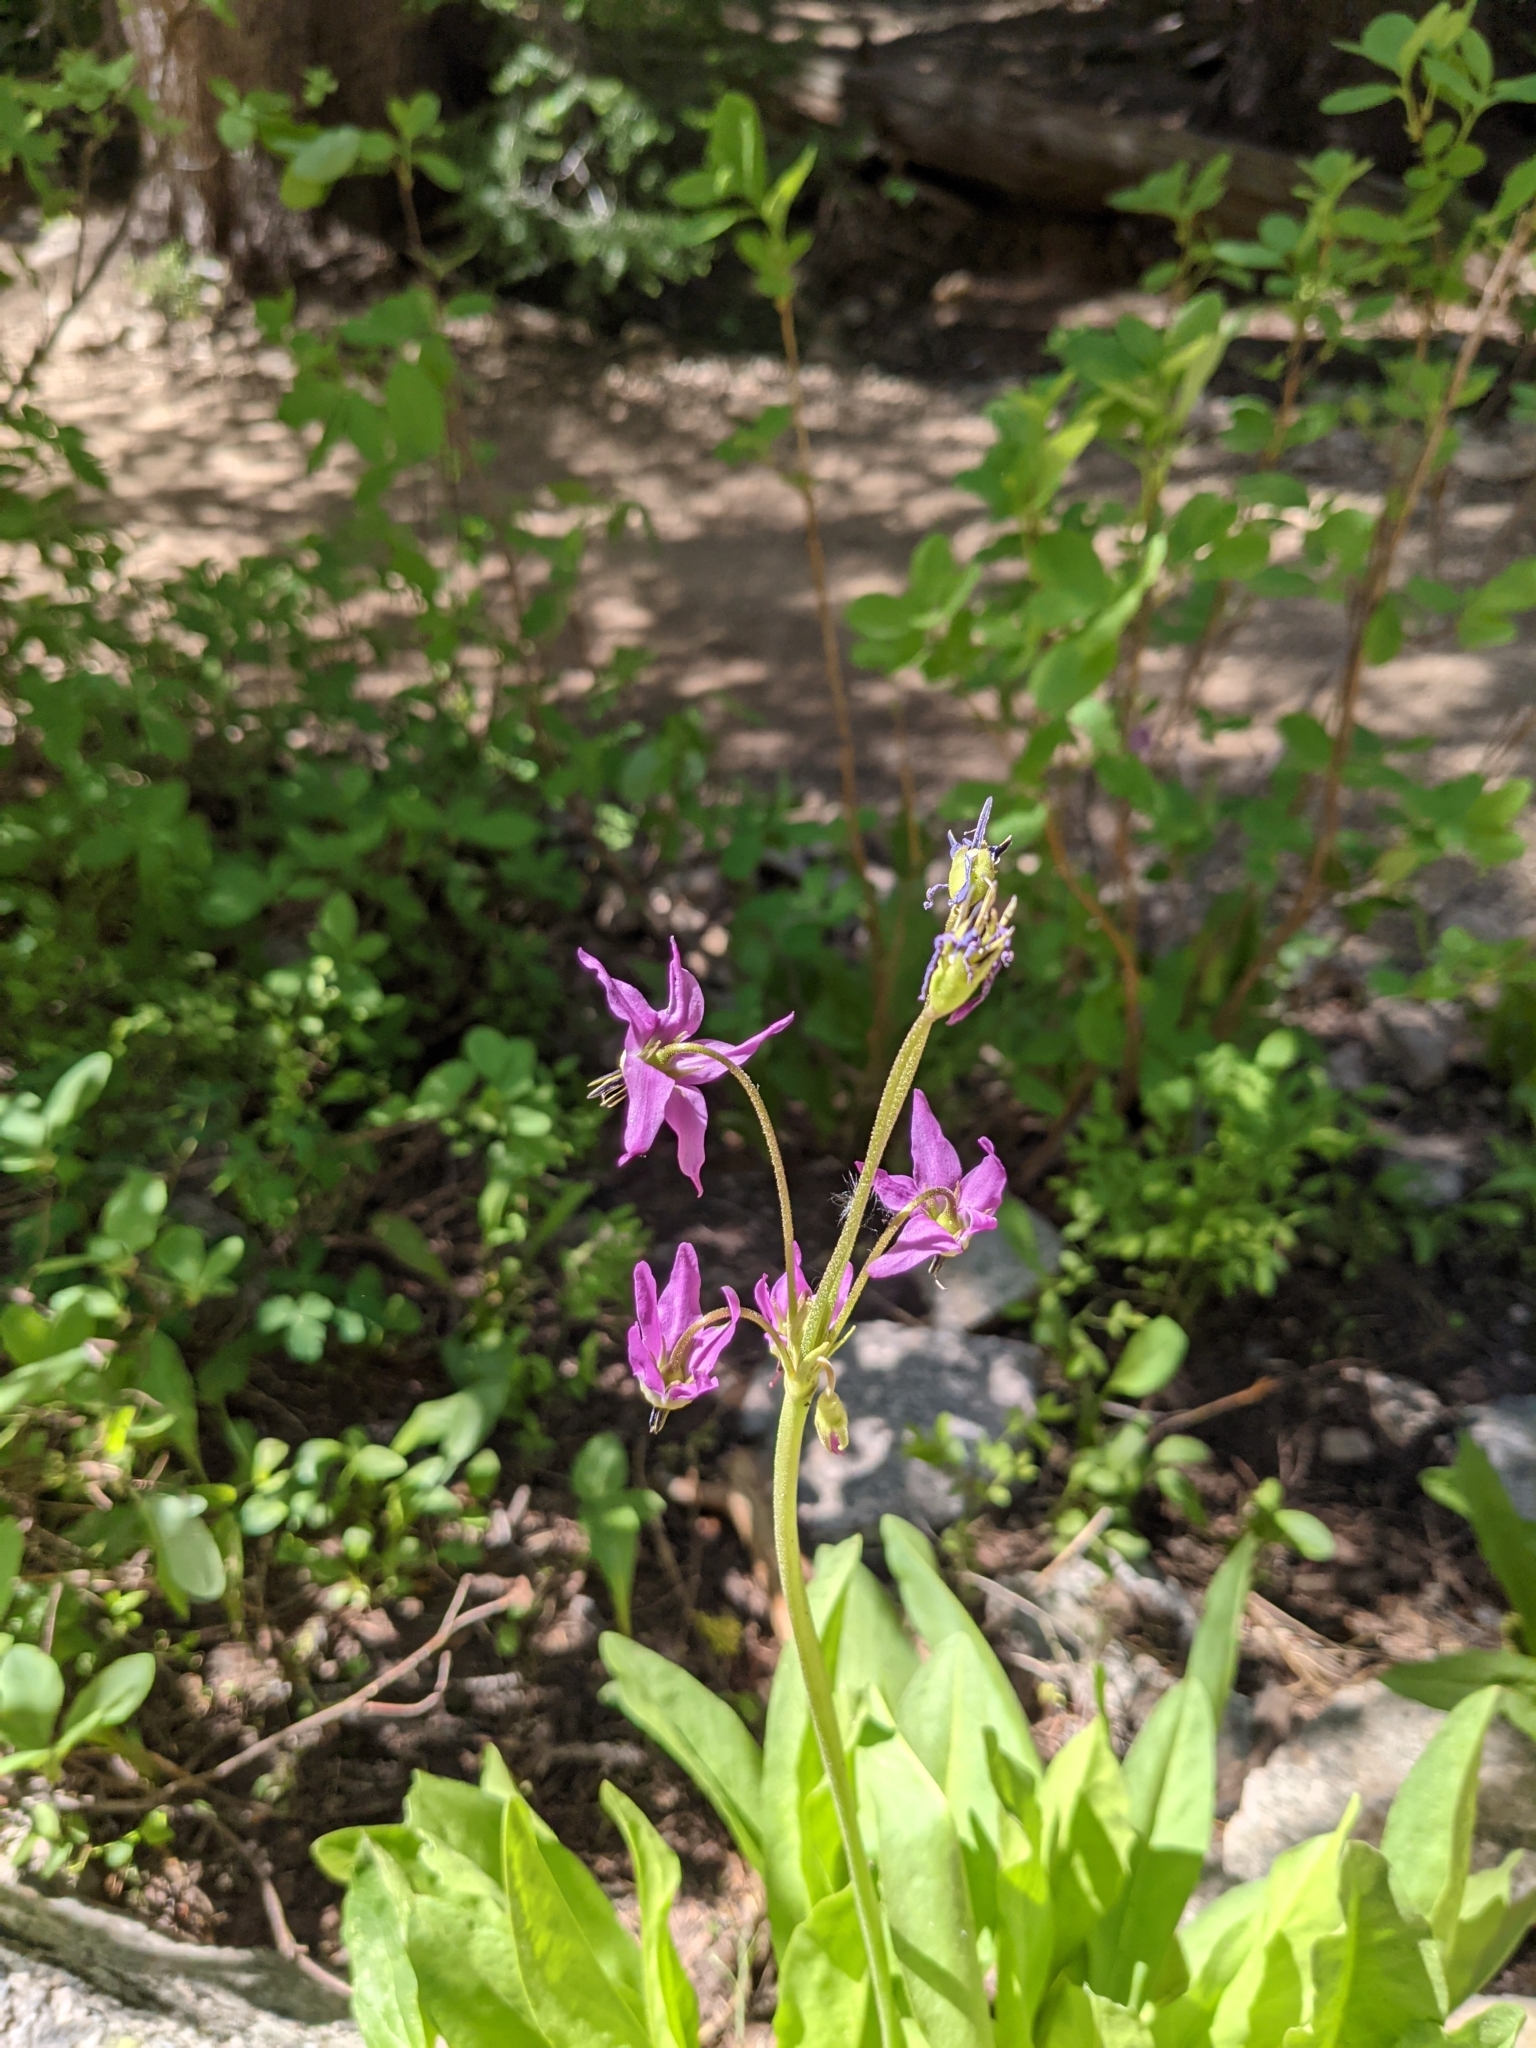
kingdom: Plantae
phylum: Tracheophyta
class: Magnoliopsida
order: Ericales
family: Primulaceae
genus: Dodecatheon
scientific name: Dodecatheon jeffreyanum
